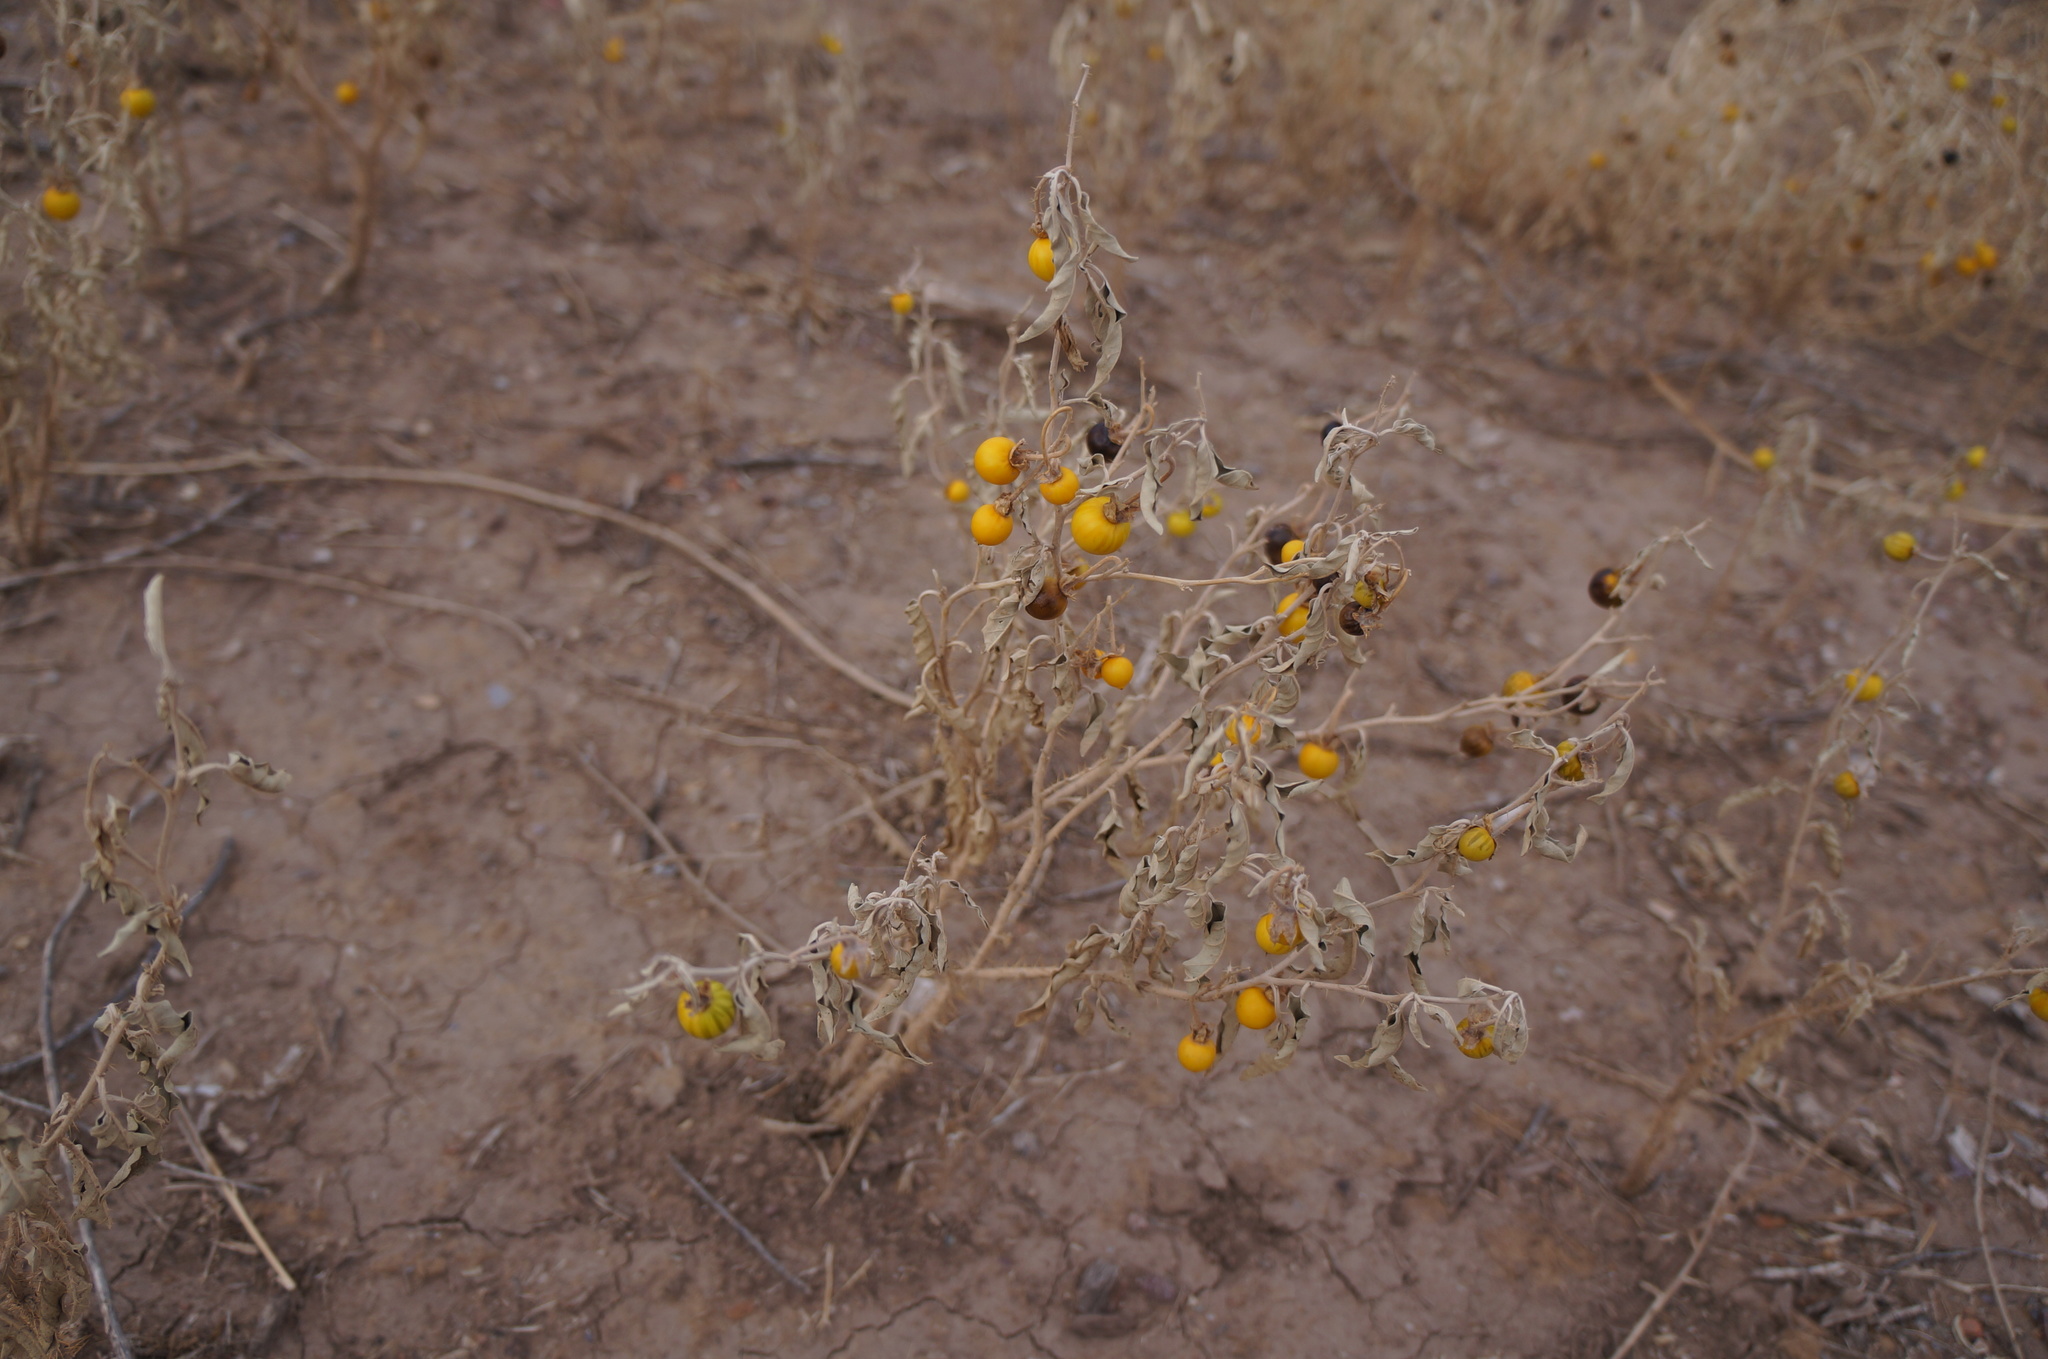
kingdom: Plantae
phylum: Tracheophyta
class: Magnoliopsida
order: Solanales
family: Solanaceae
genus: Solanum
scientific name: Solanum elaeagnifolium
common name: Silverleaf nightshade
